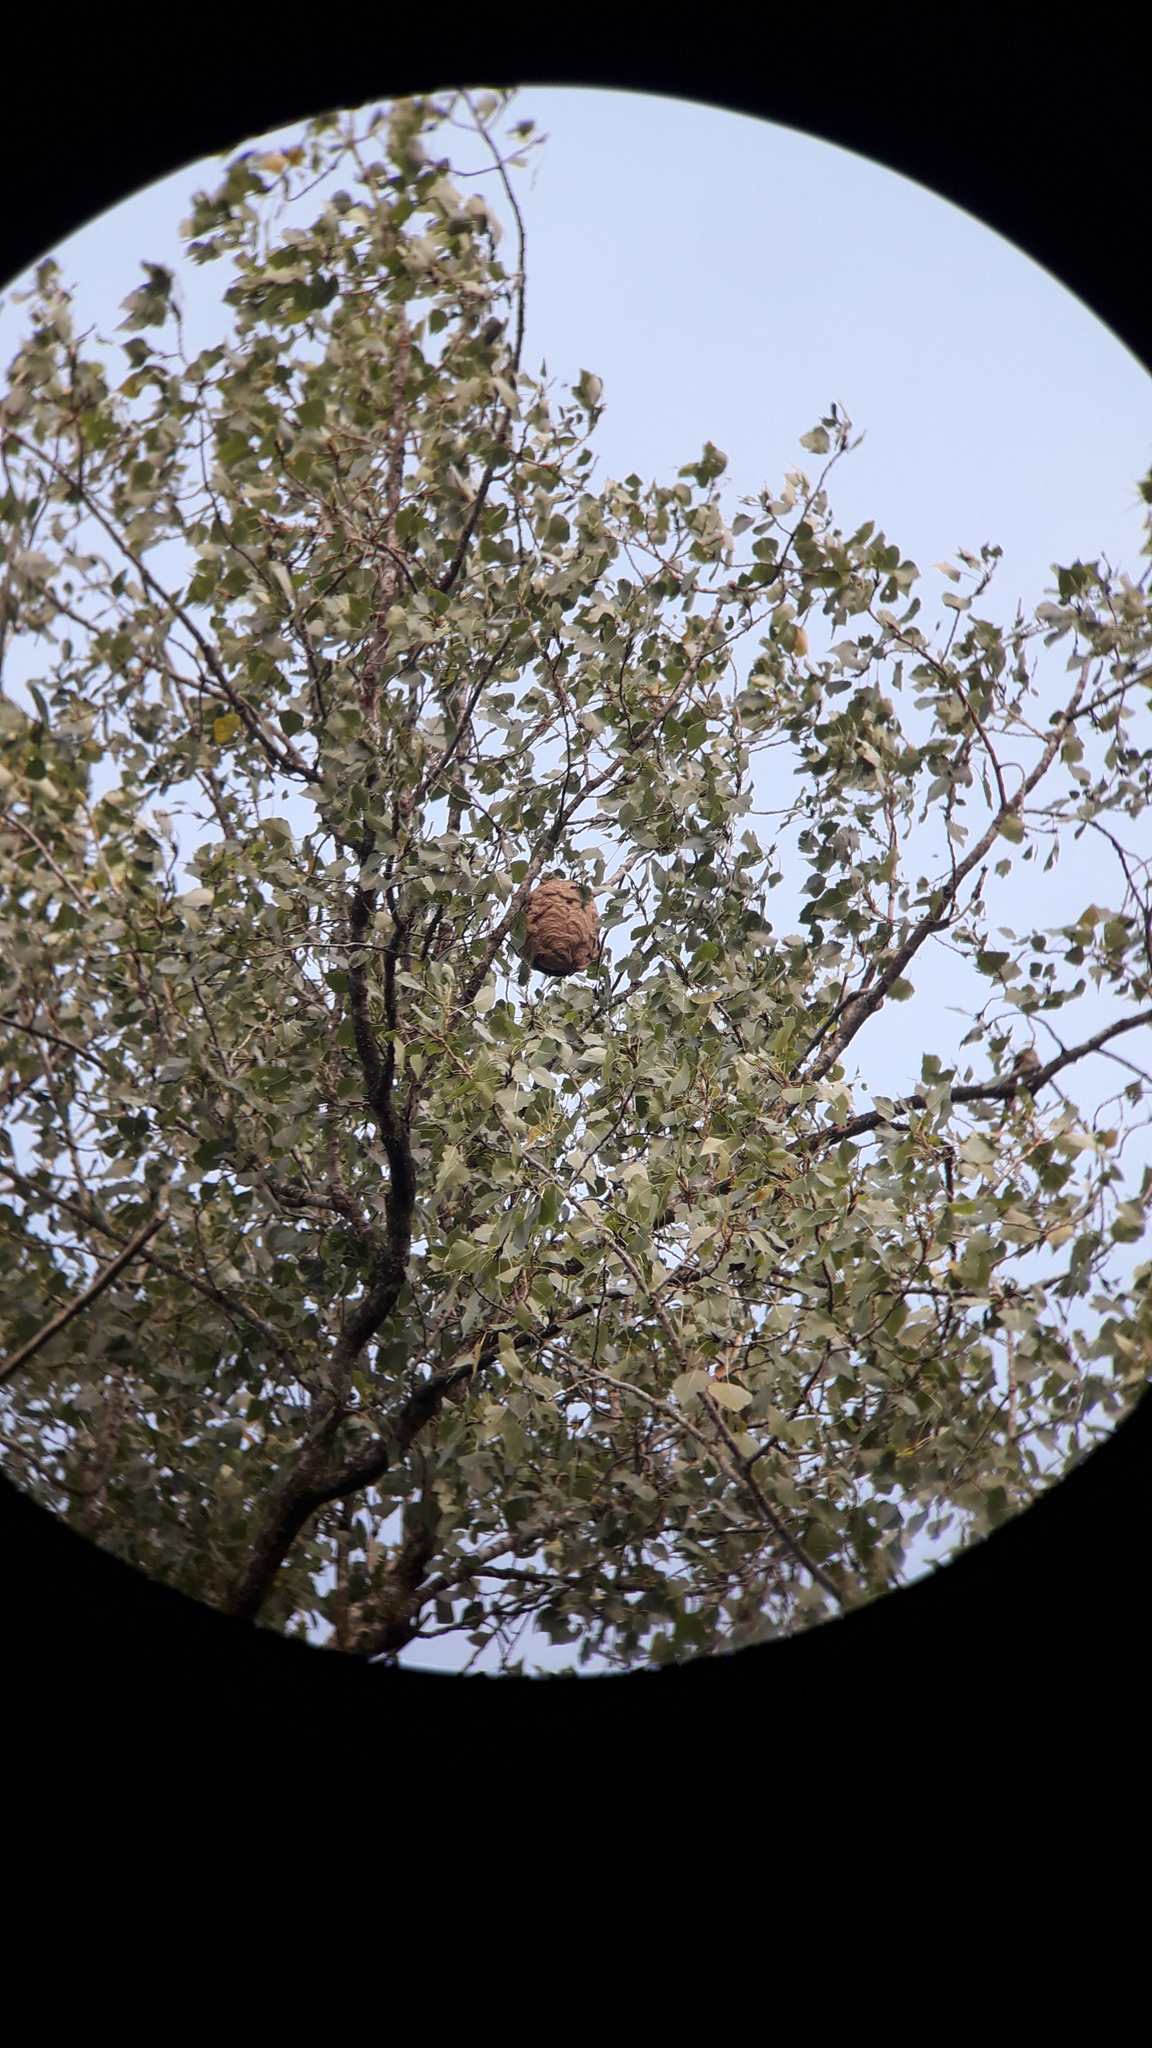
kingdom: Animalia
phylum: Arthropoda
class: Insecta
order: Hymenoptera
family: Vespidae
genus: Vespa
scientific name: Vespa velutina
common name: Asian hornet
